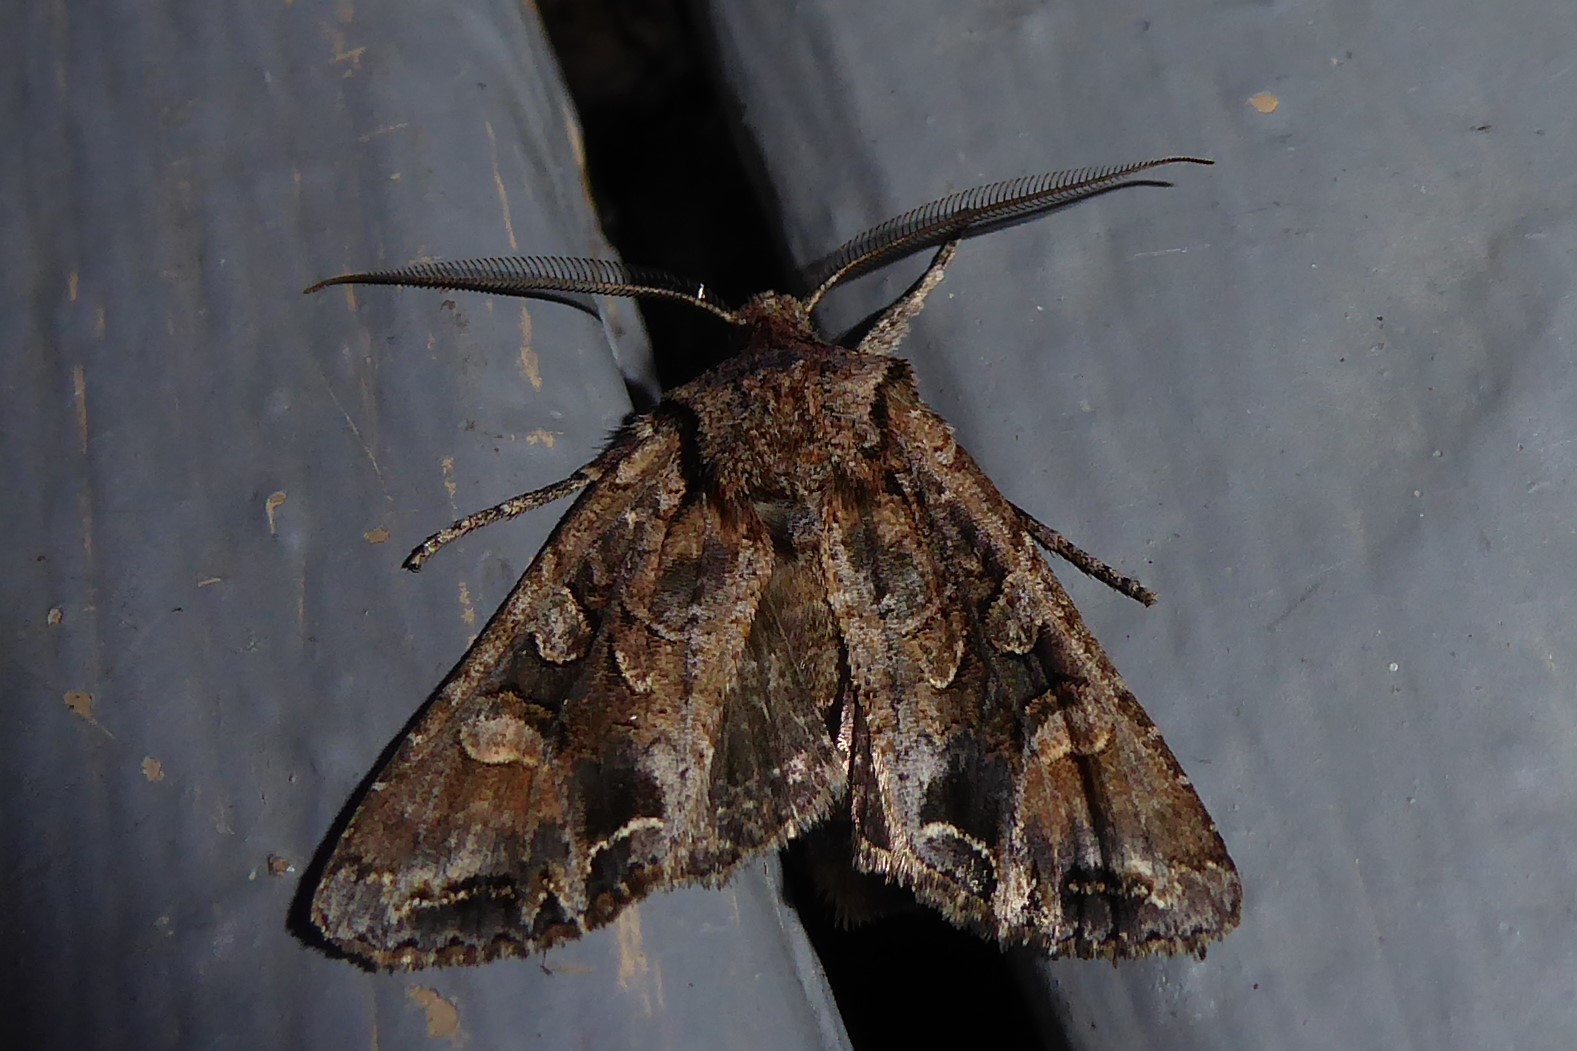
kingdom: Animalia
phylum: Arthropoda
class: Insecta
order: Lepidoptera
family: Noctuidae
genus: Ichneutica
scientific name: Ichneutica
